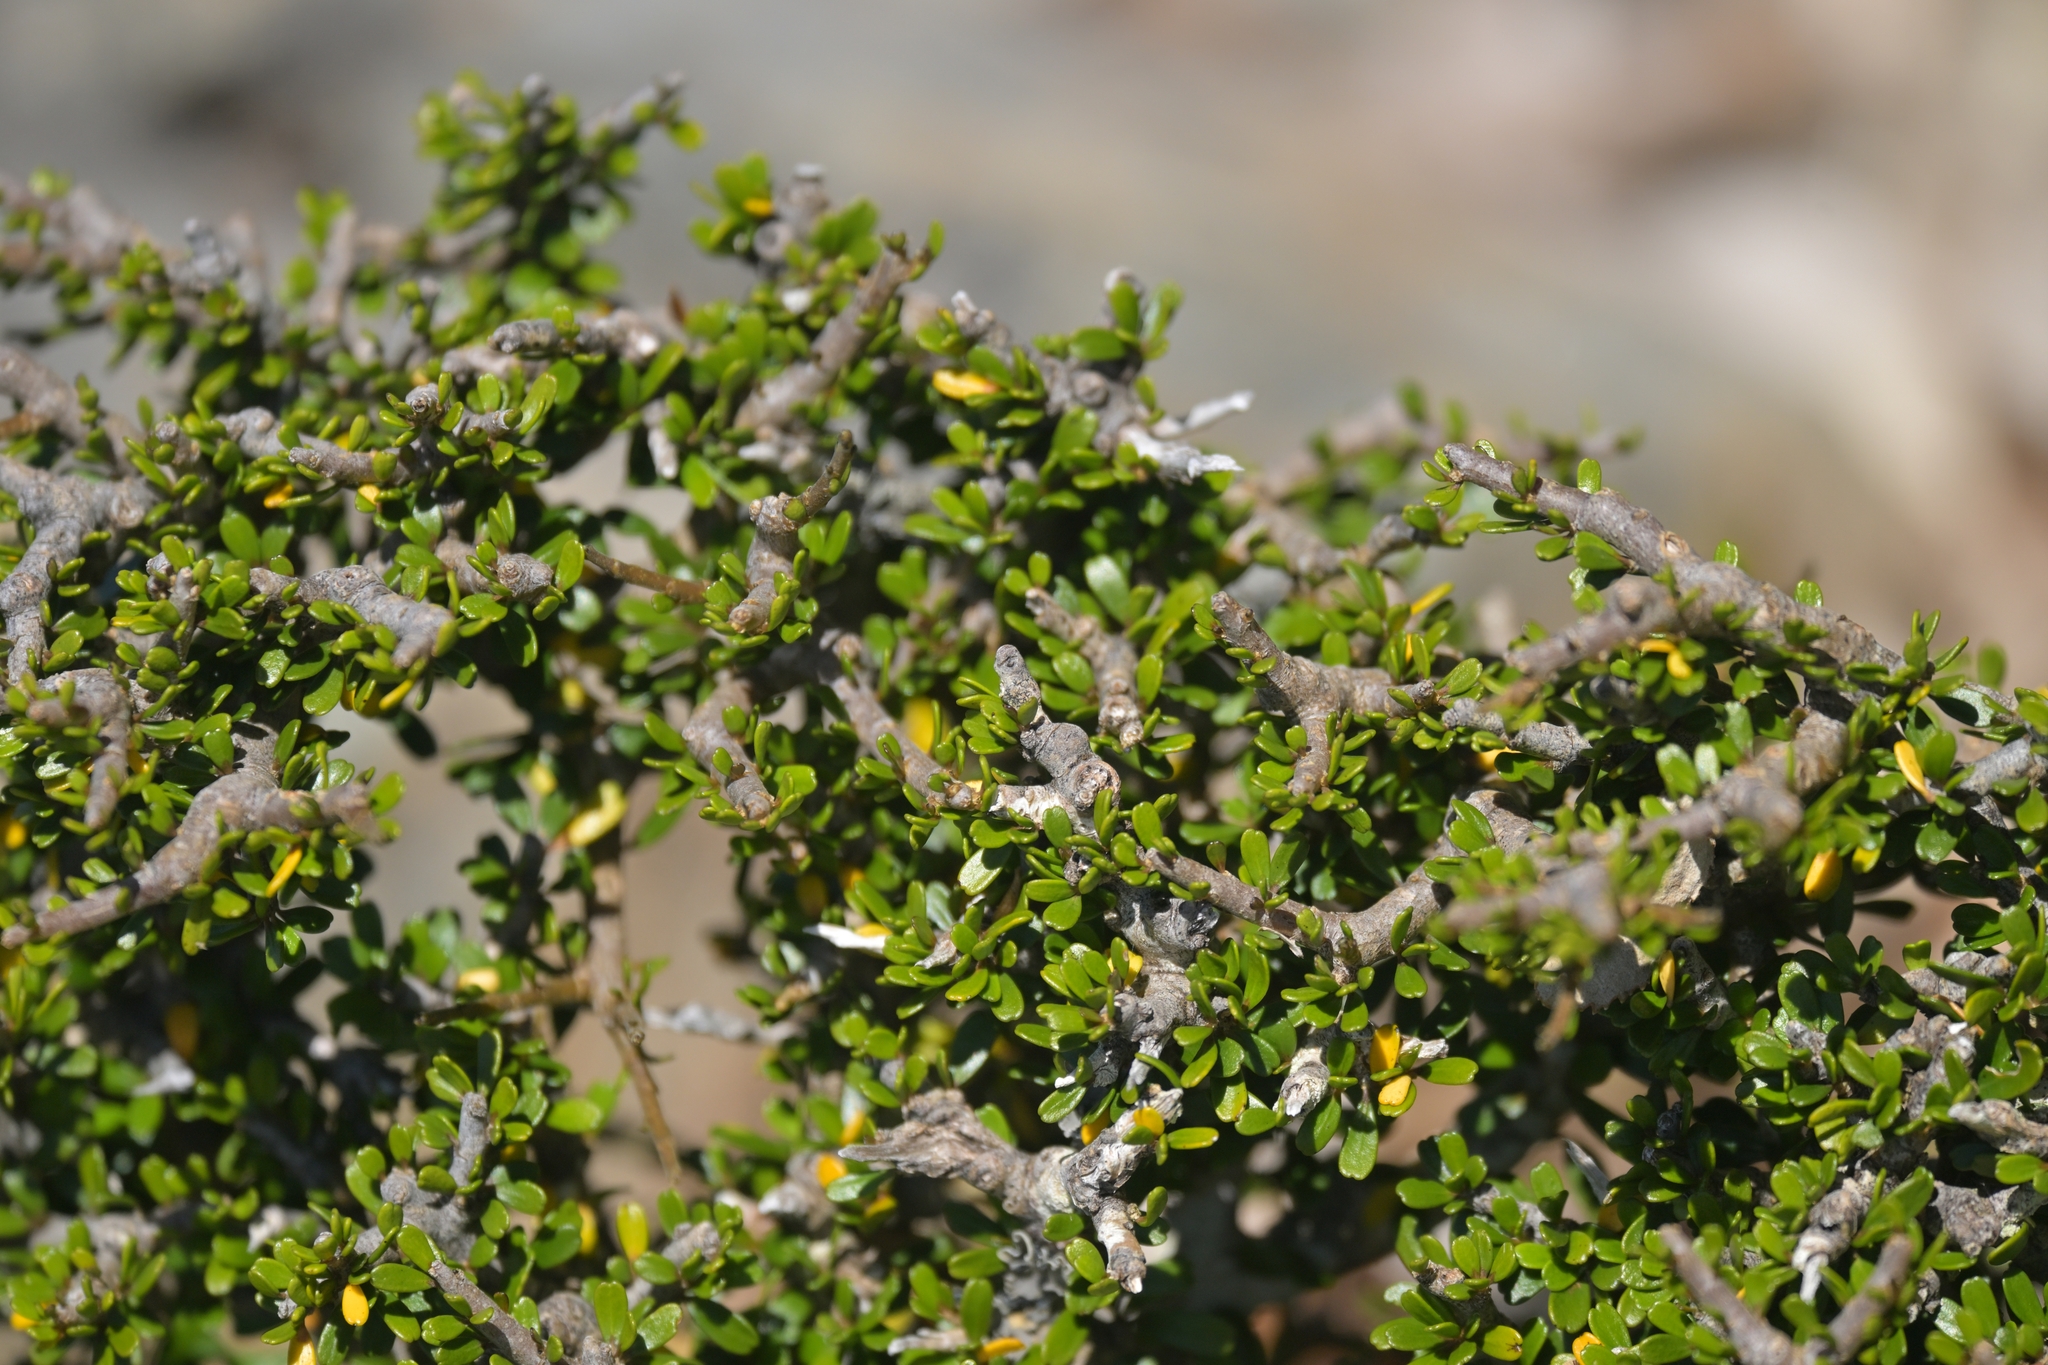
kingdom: Plantae
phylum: Tracheophyta
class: Magnoliopsida
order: Malpighiales
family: Violaceae
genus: Melicytus
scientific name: Melicytus alpinus
